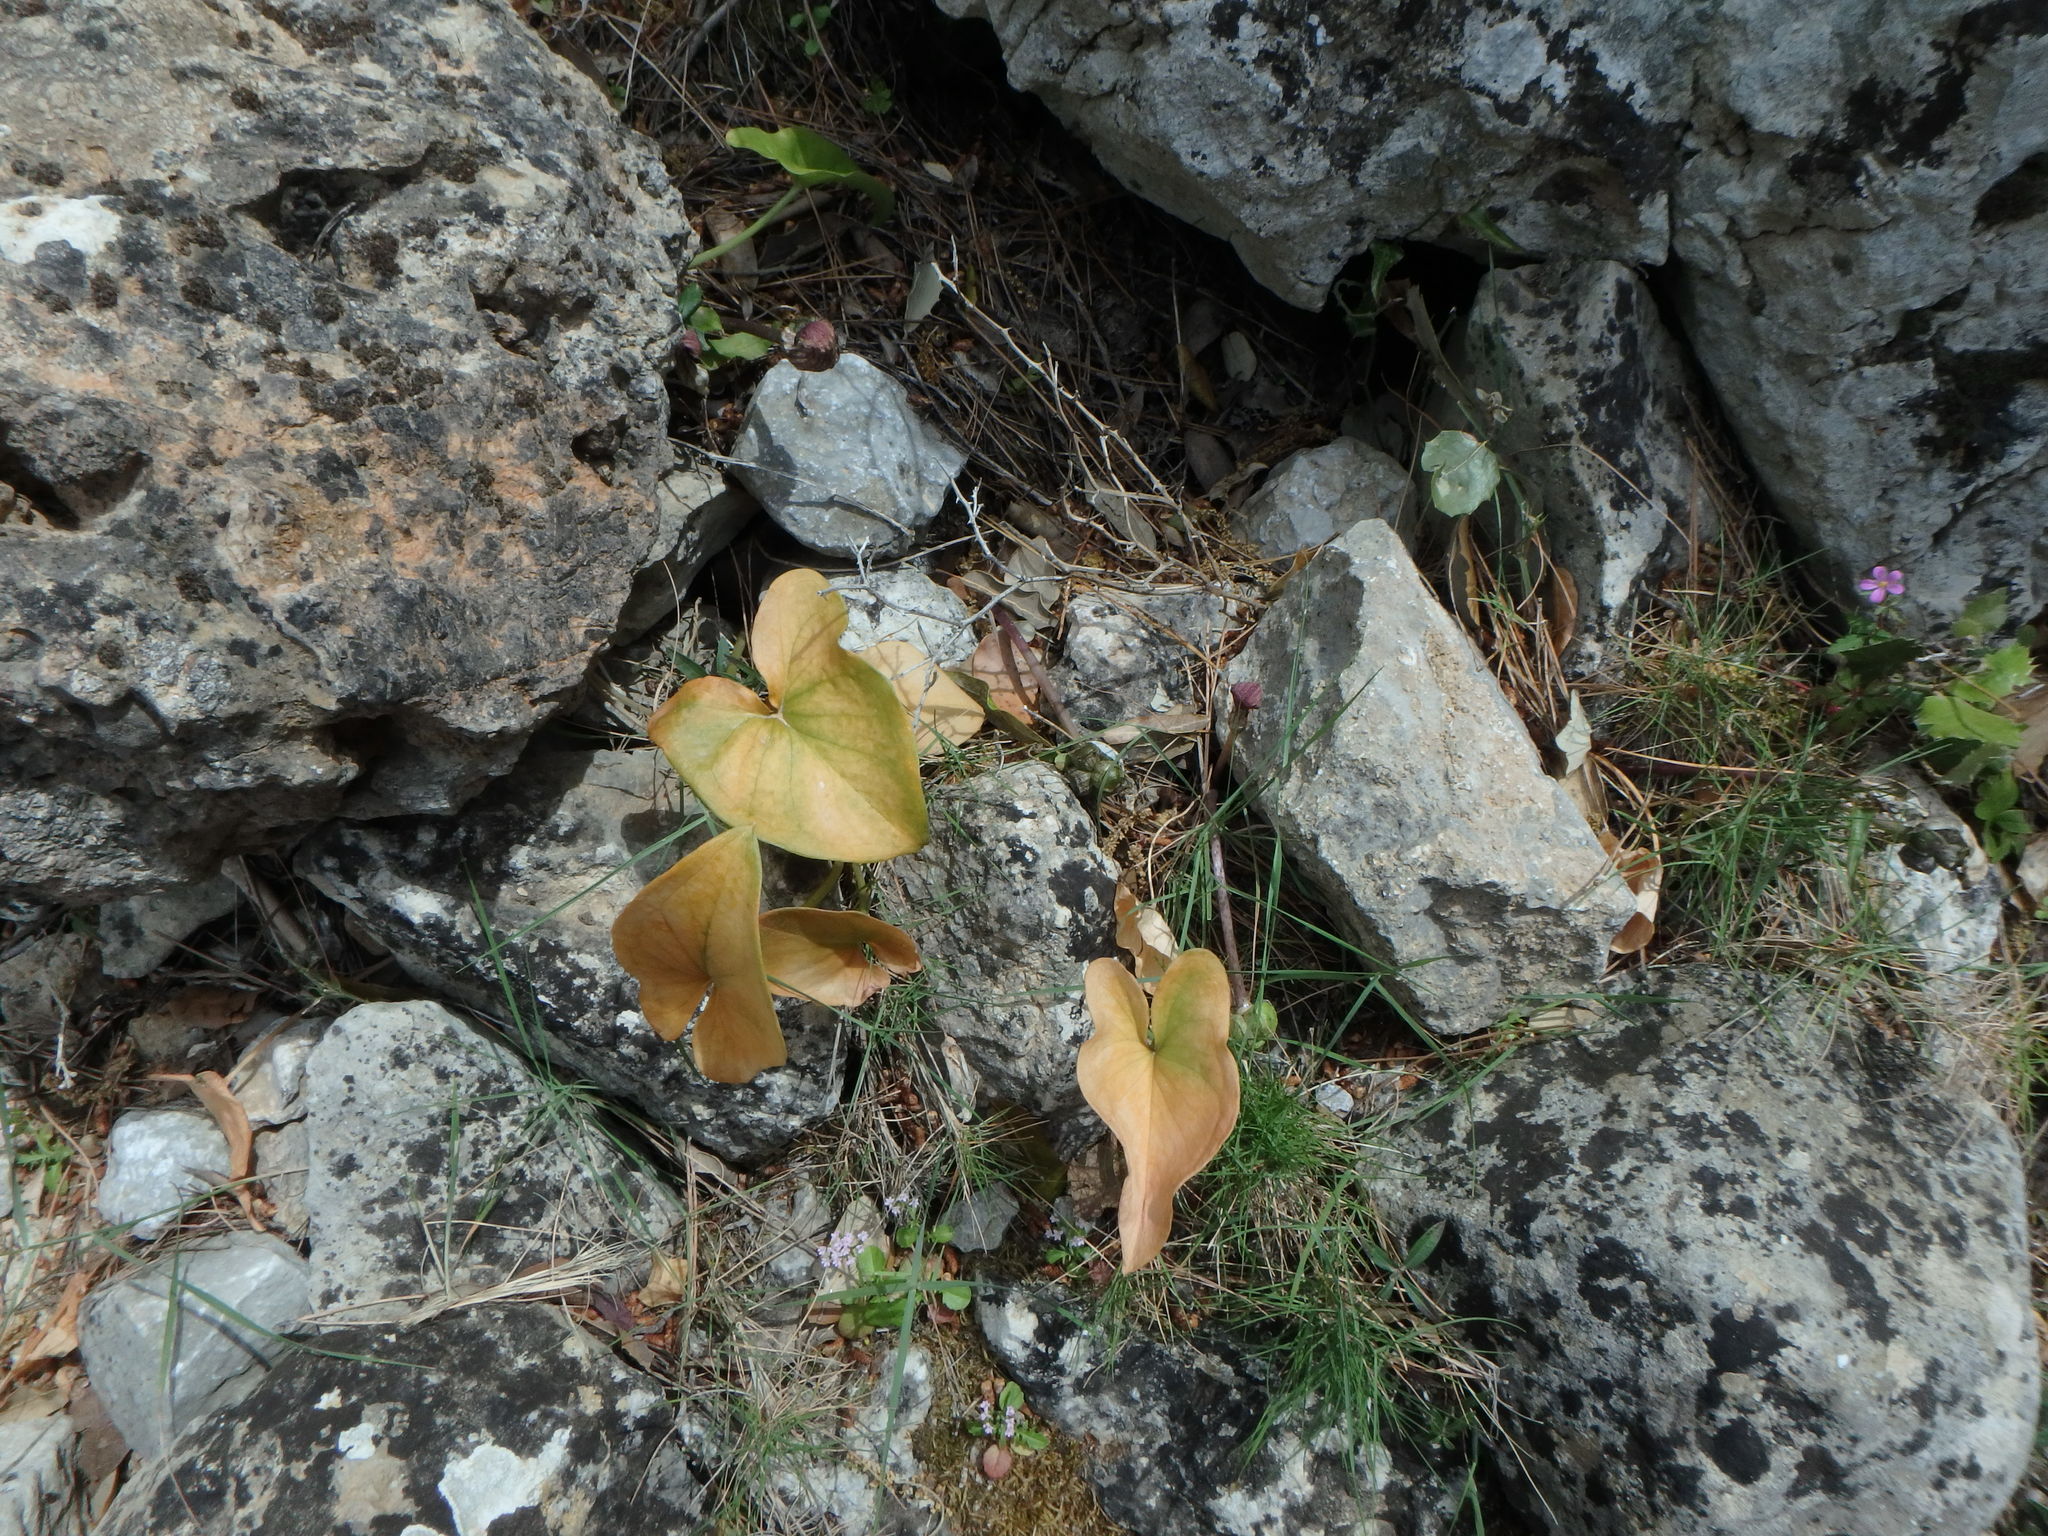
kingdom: Plantae
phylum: Tracheophyta
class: Liliopsida
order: Alismatales
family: Araceae
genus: Arisarum
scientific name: Arisarum vulgare
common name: Common arisarum
